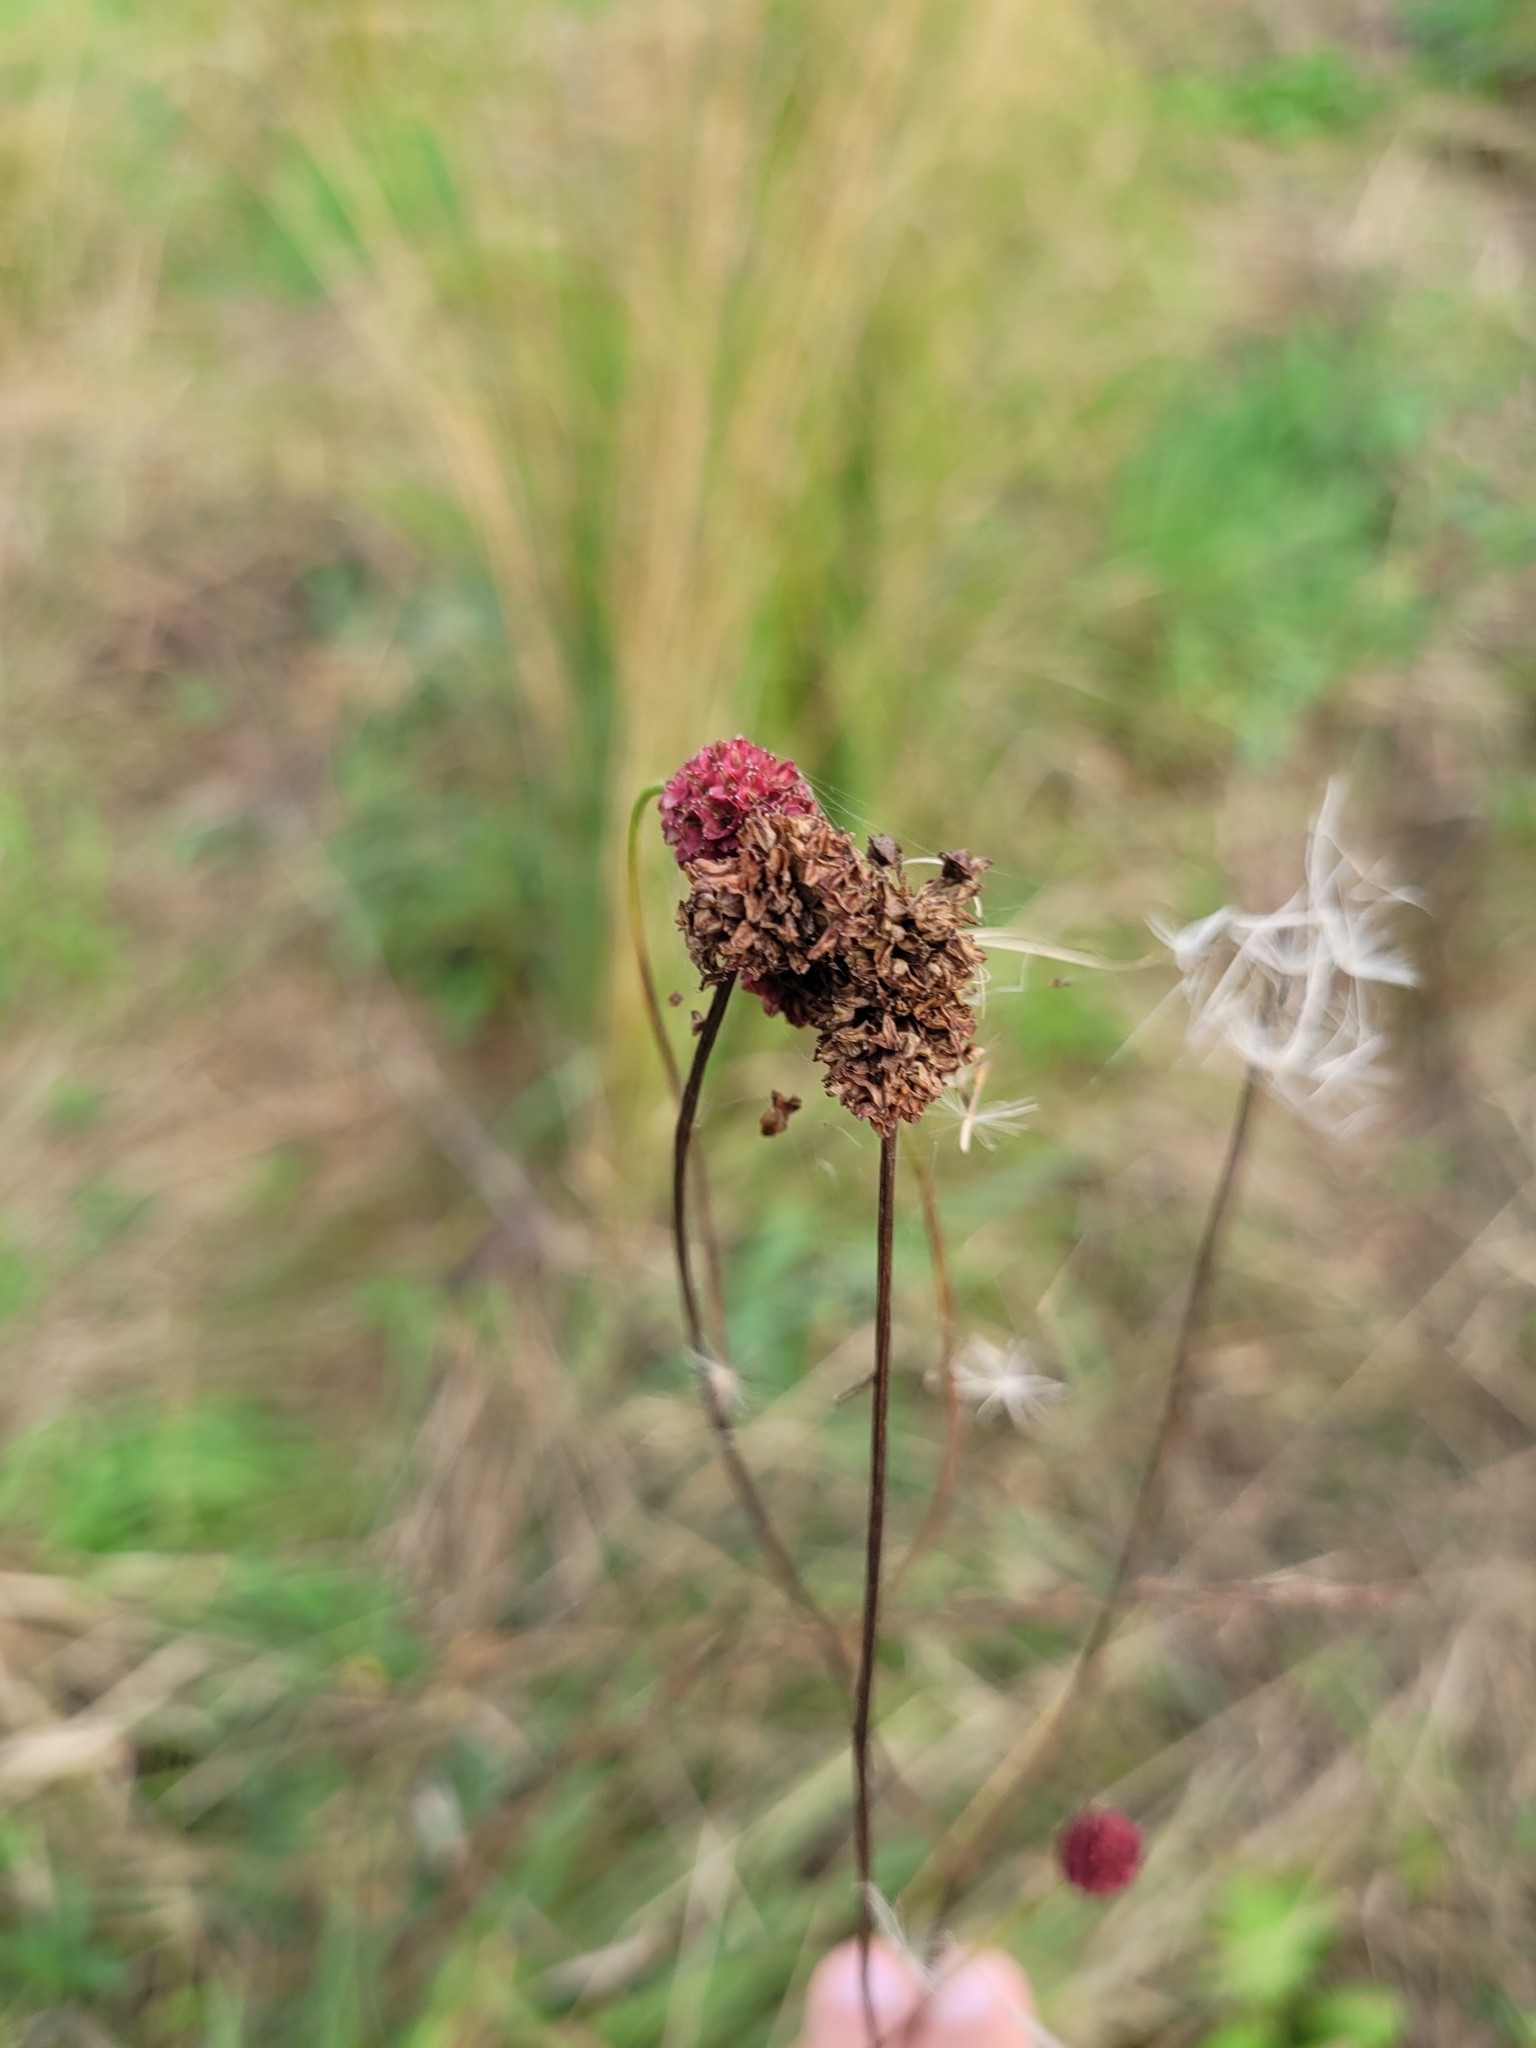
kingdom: Plantae
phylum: Tracheophyta
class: Magnoliopsida
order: Rosales
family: Rosaceae
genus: Sanguisorba
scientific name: Sanguisorba officinalis
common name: Great burnet
